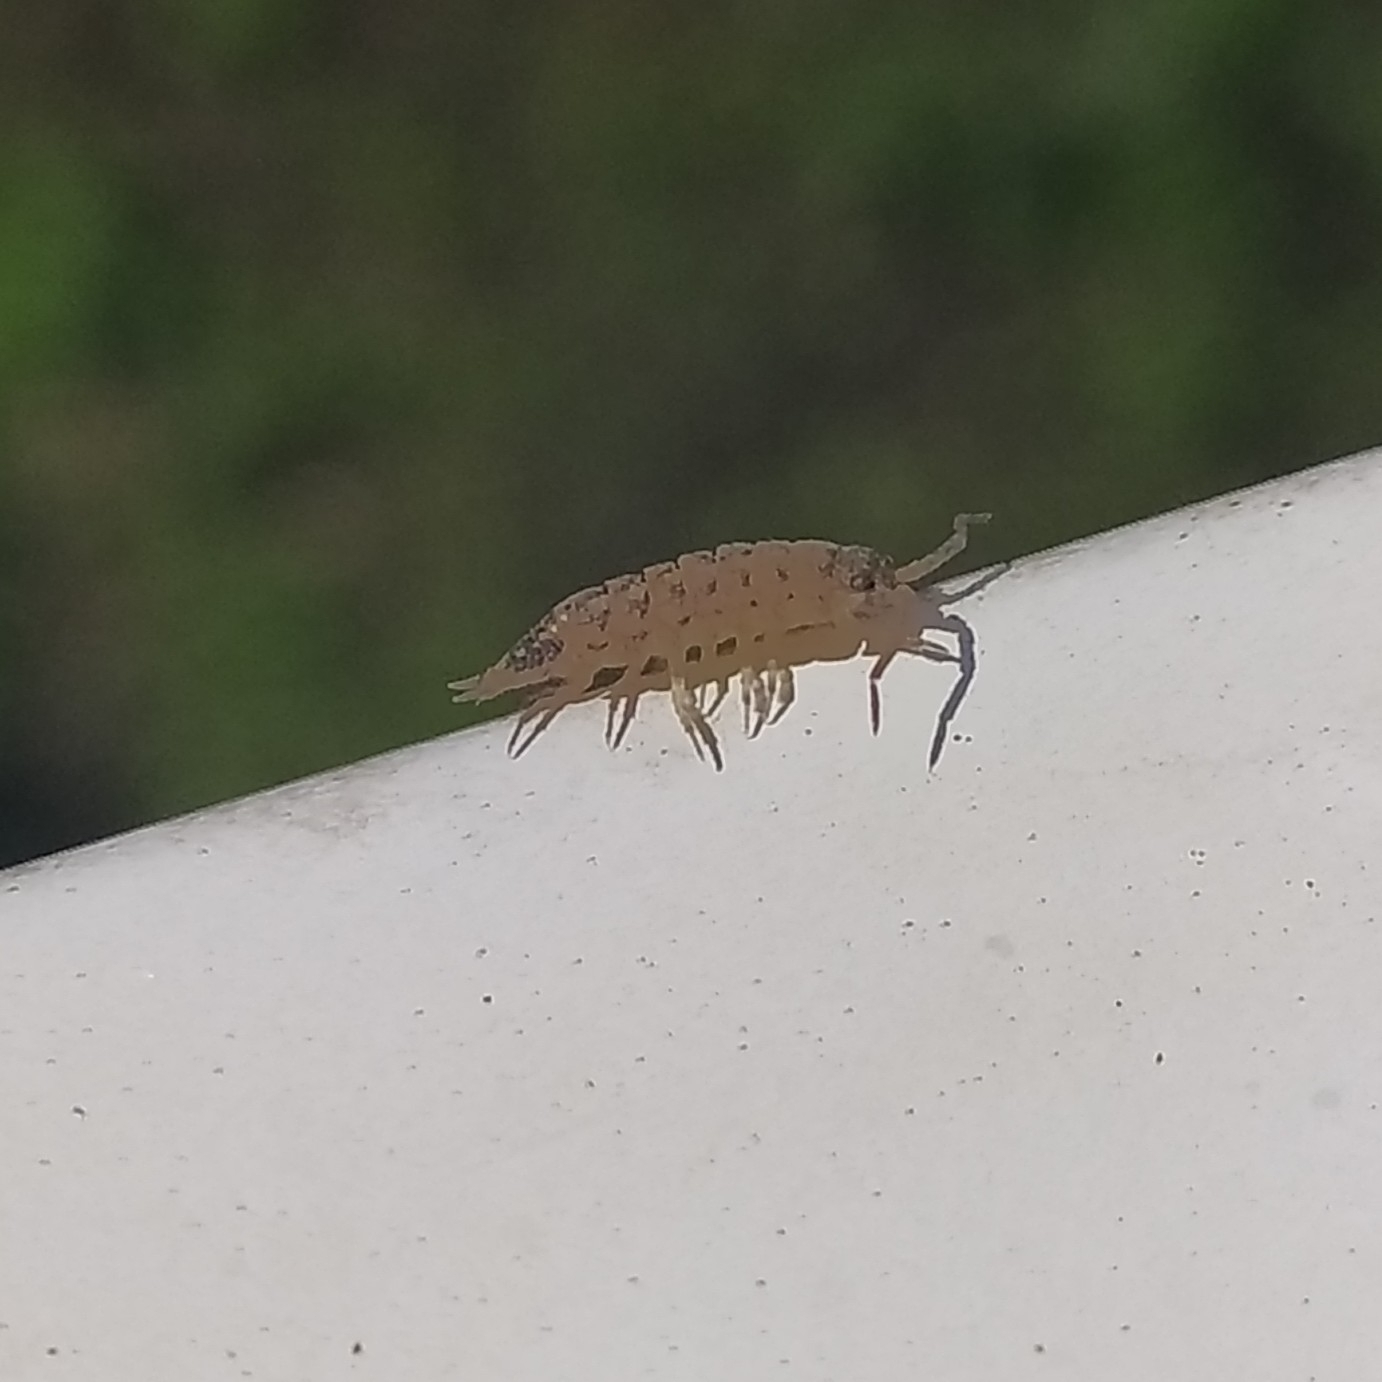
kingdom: Animalia
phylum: Arthropoda
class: Malacostraca
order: Isopoda
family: Porcellionidae
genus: Porcellio
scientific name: Porcellio spinicornis
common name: Painted woodlouse
